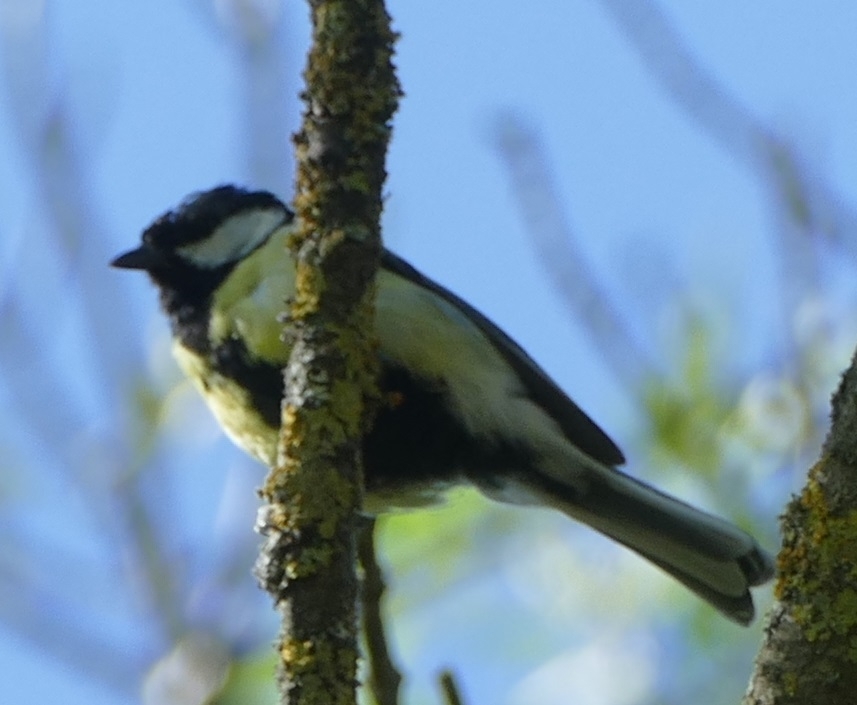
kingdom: Animalia
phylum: Chordata
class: Aves
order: Passeriformes
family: Paridae
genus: Parus
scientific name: Parus major
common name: Great tit
